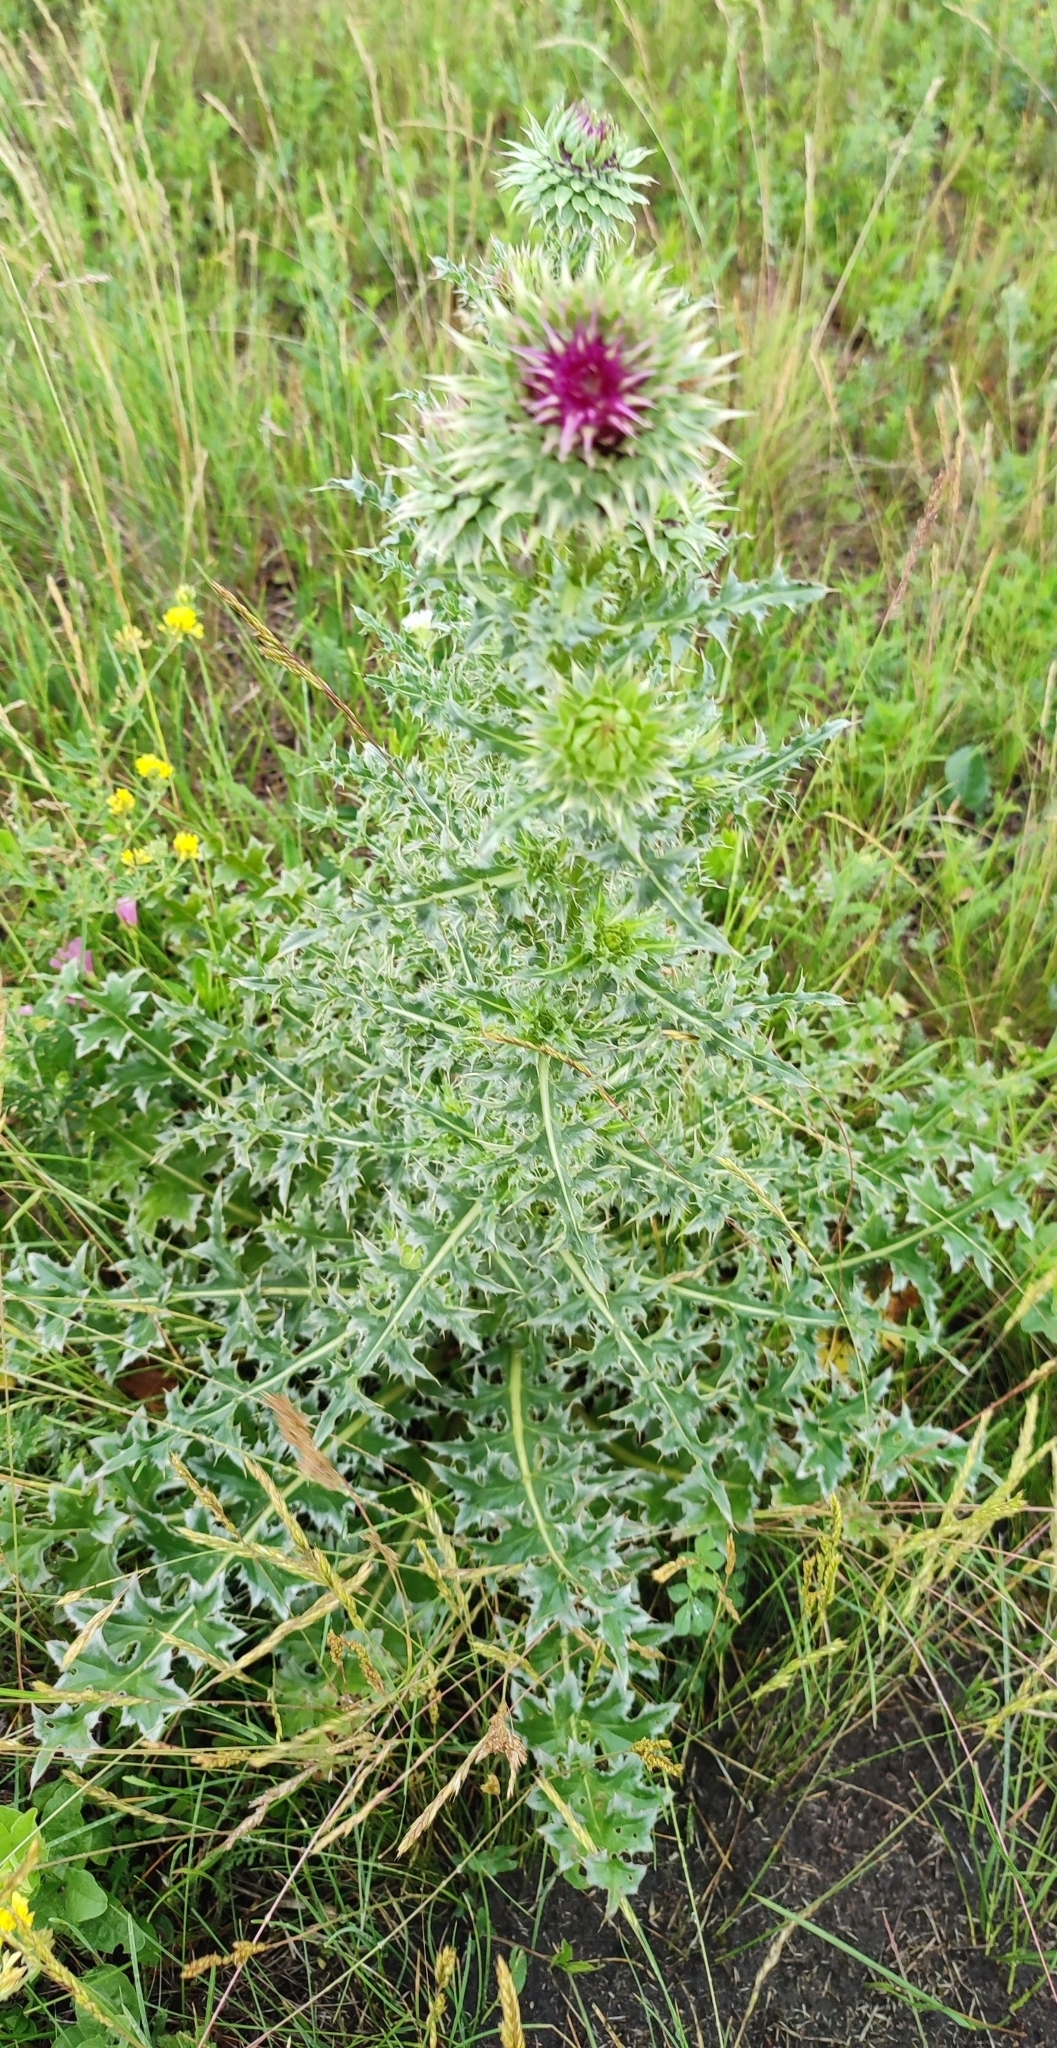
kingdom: Plantae
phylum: Tracheophyta
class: Magnoliopsida
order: Asterales
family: Asteraceae
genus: Carduus
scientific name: Carduus nutans
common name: Musk thistle
